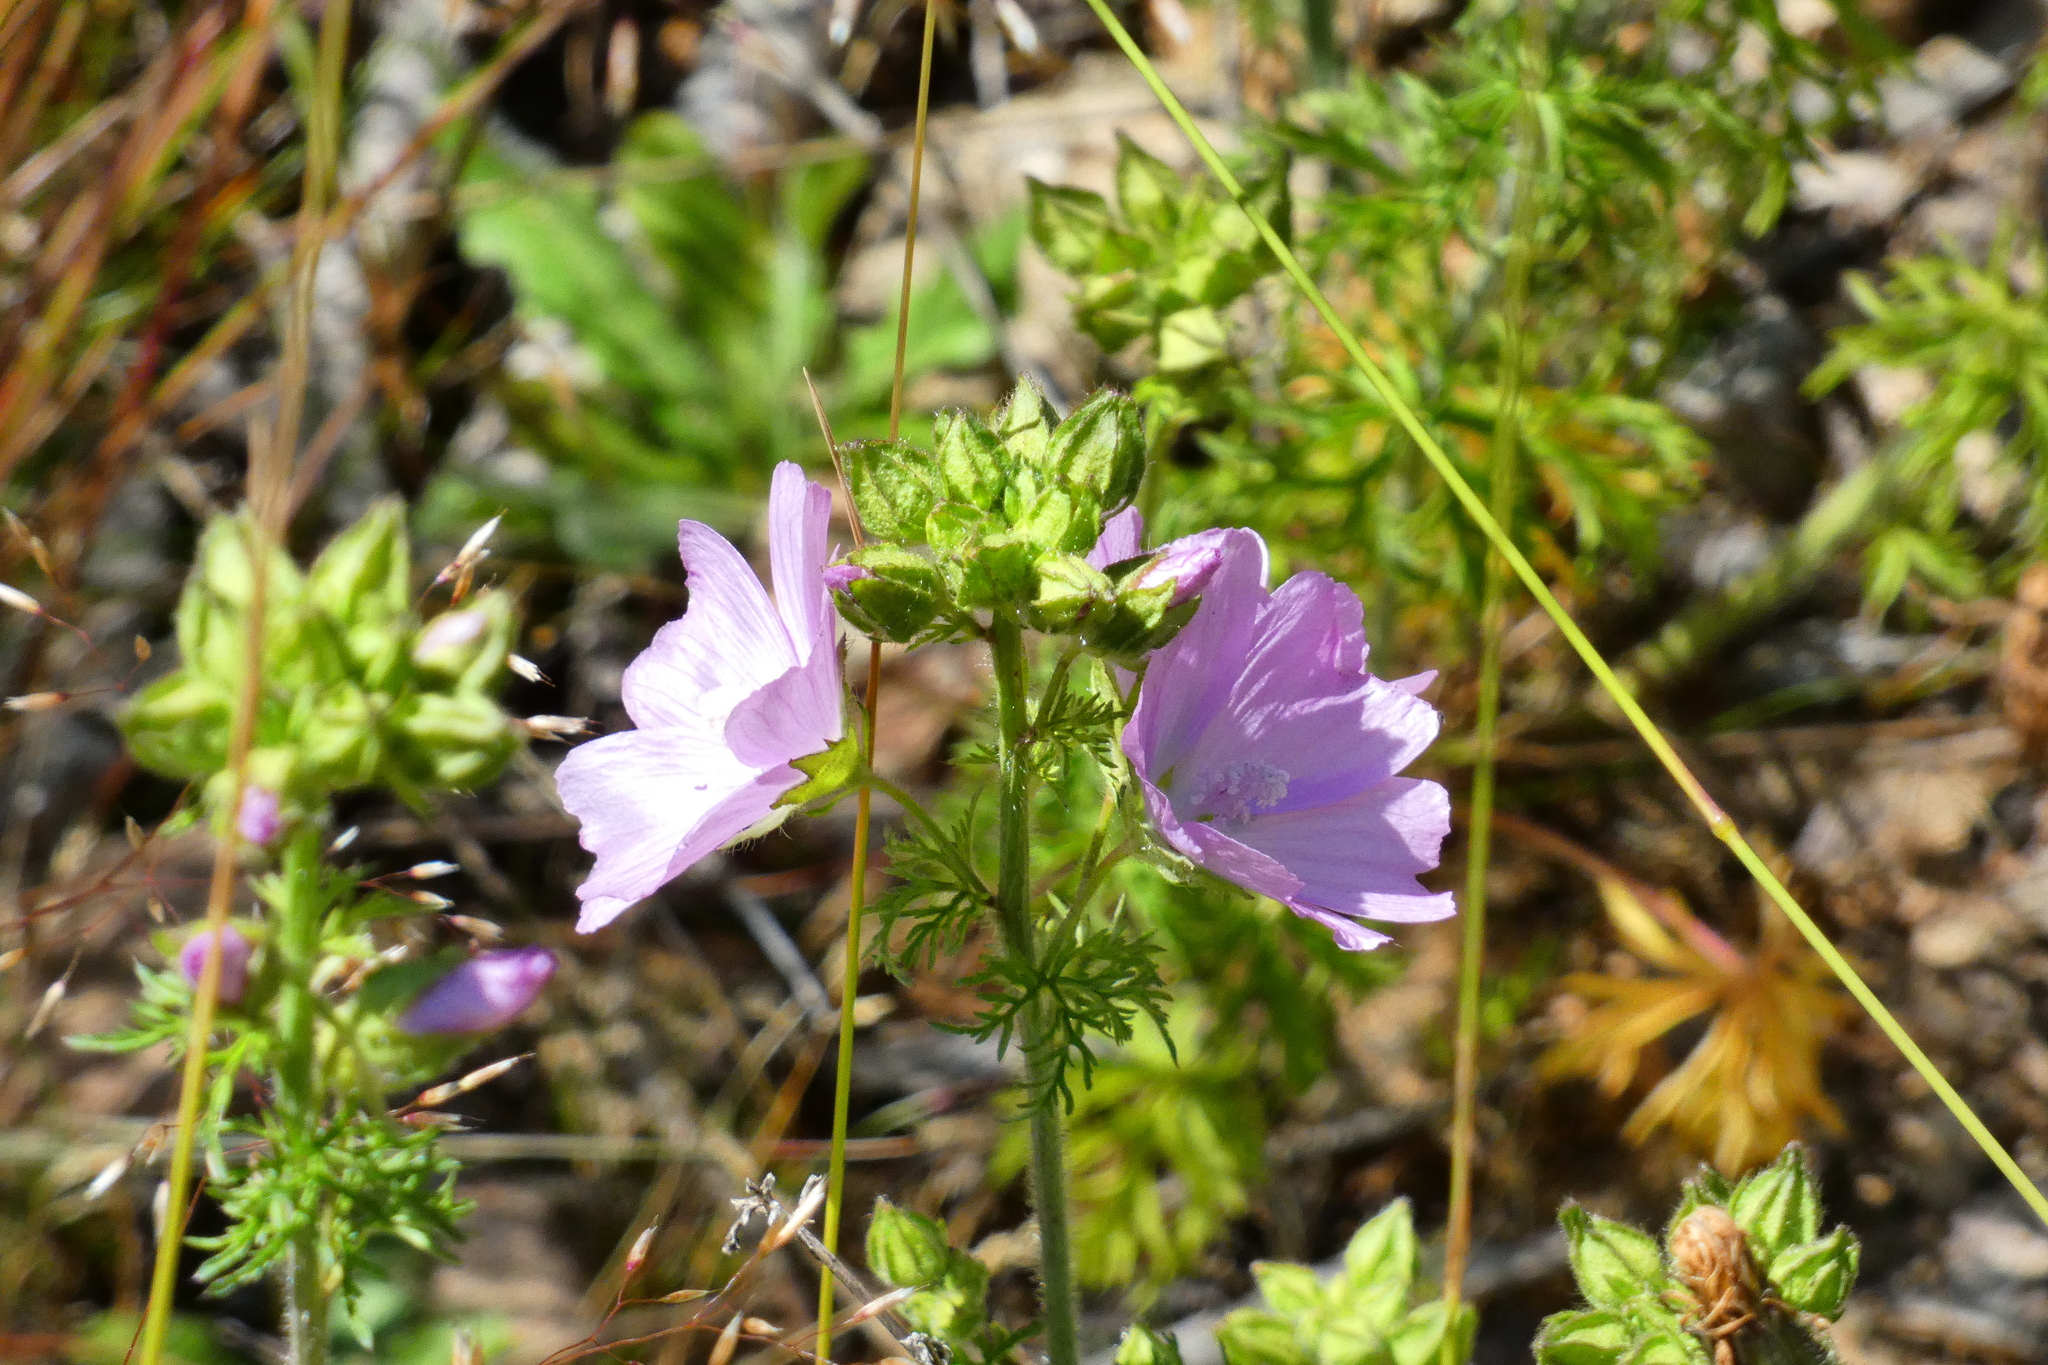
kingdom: Plantae
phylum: Tracheophyta
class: Magnoliopsida
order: Malvales
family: Malvaceae
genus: Malva
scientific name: Malva moschata
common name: Musk mallow
